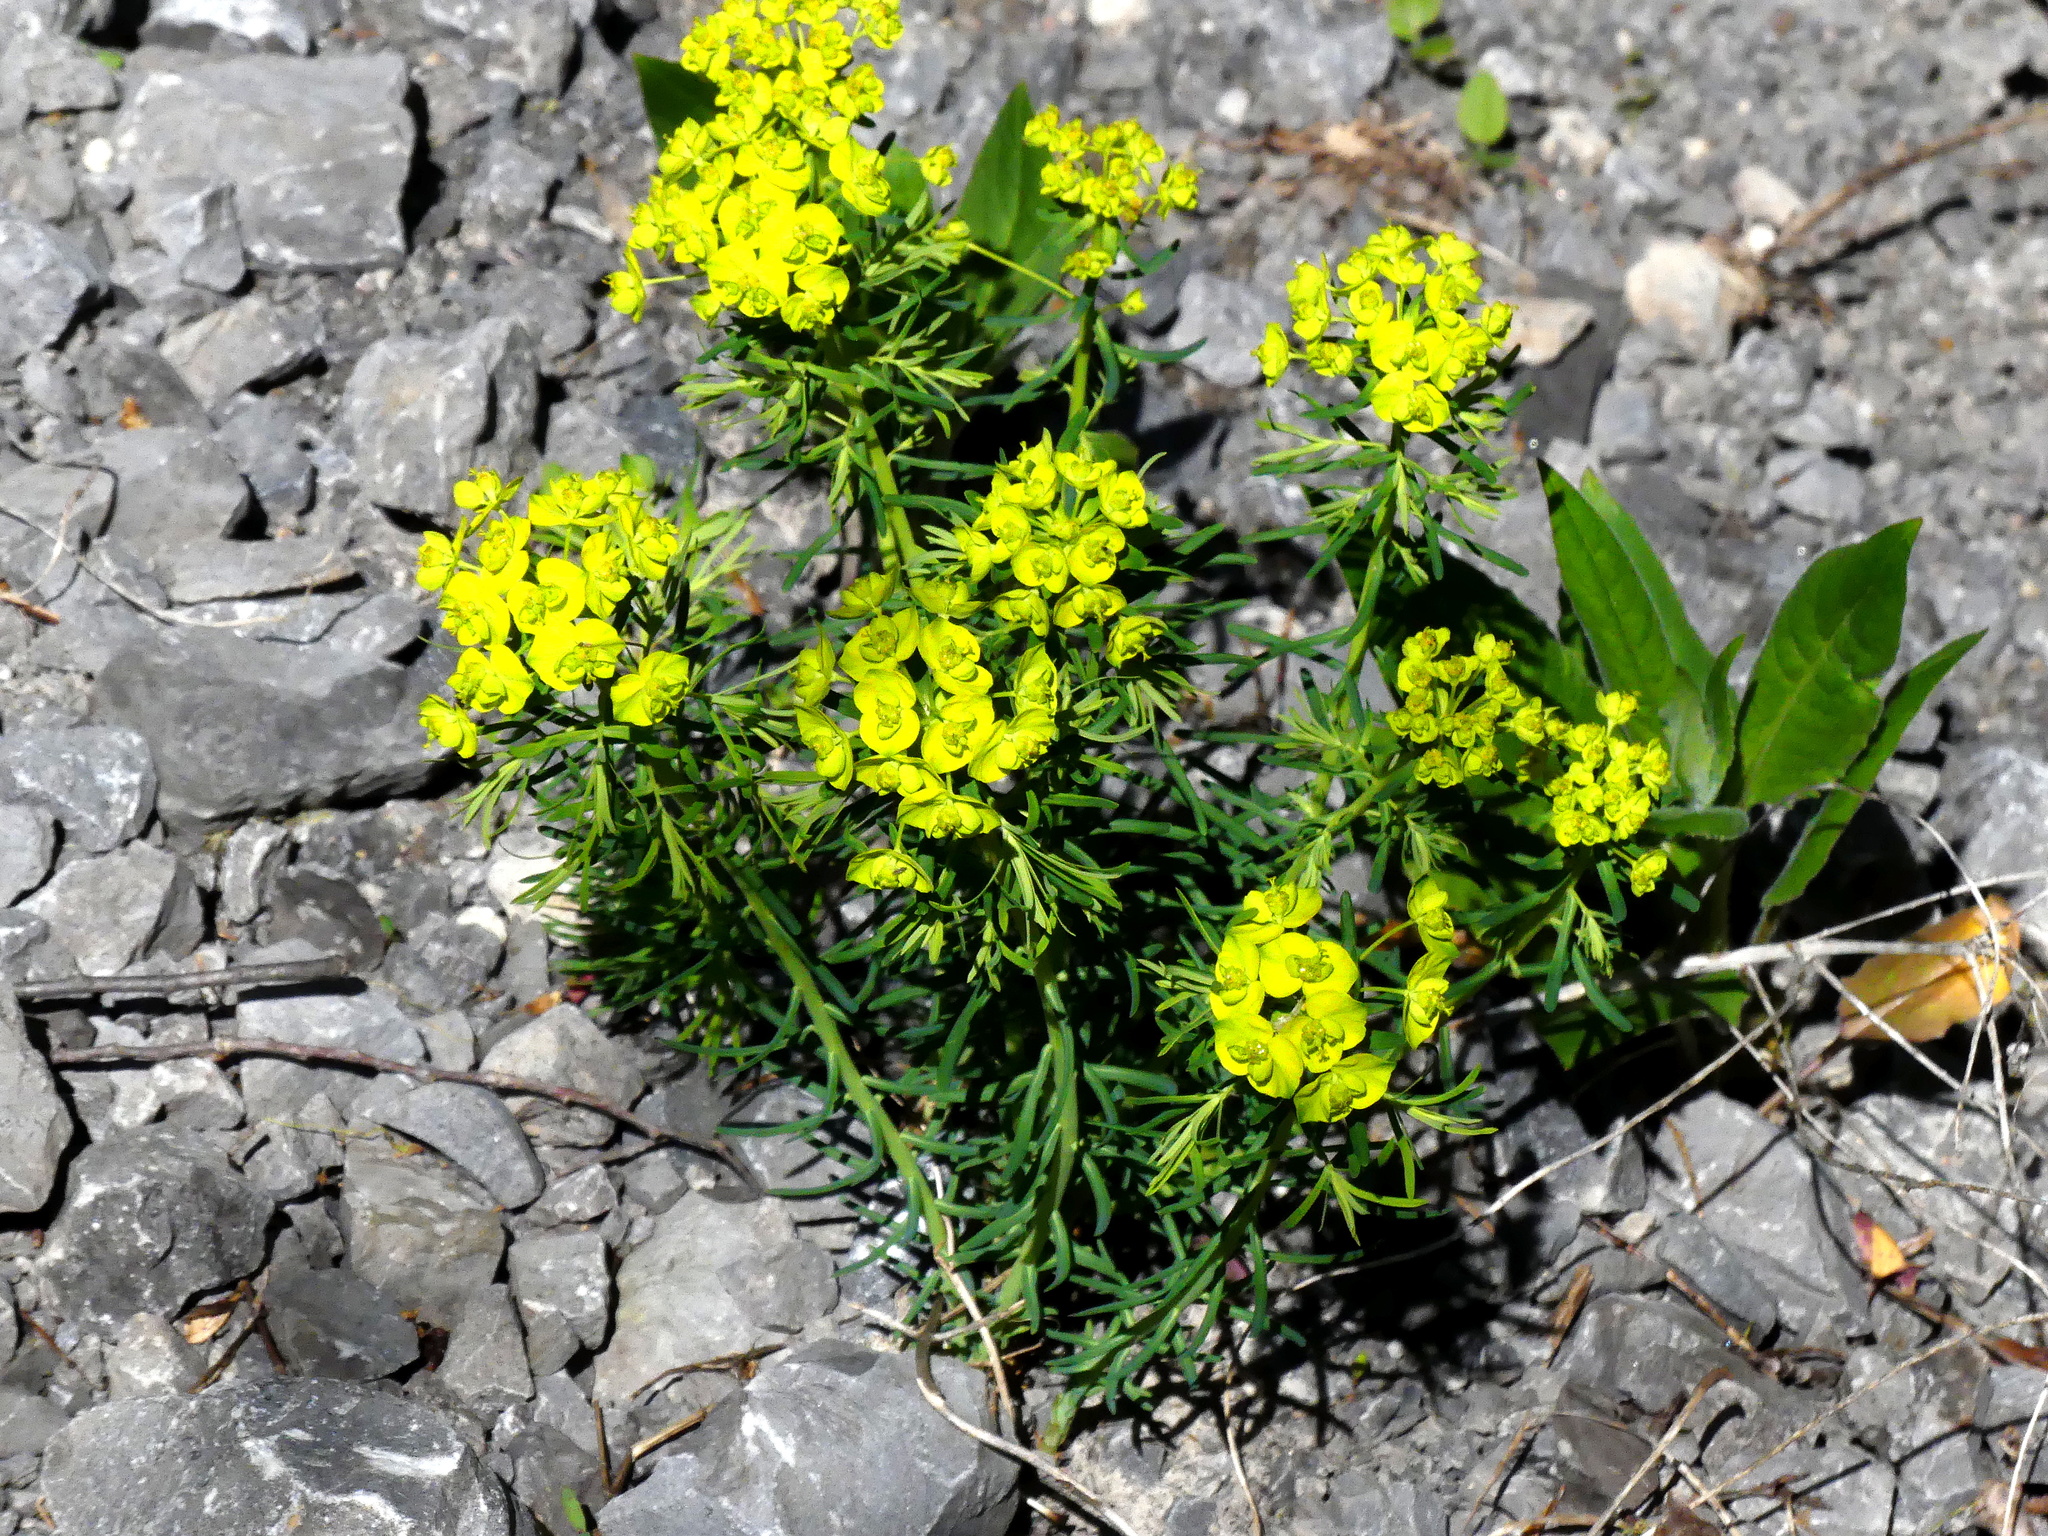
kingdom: Plantae
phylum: Tracheophyta
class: Magnoliopsida
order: Malpighiales
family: Euphorbiaceae
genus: Euphorbia
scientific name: Euphorbia cyparissias
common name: Cypress spurge
